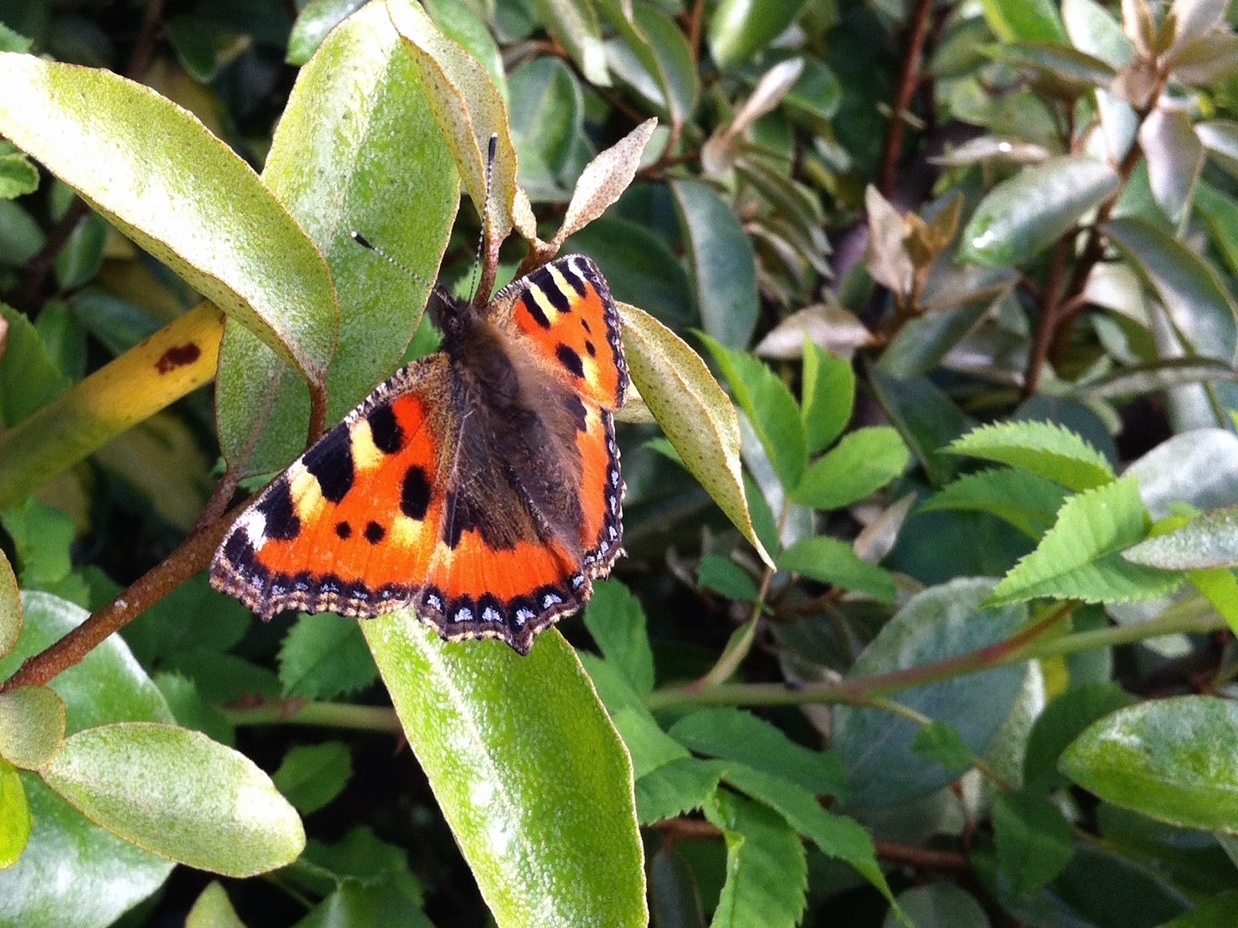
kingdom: Animalia
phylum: Arthropoda
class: Insecta
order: Lepidoptera
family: Nymphalidae
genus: Aglais
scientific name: Aglais urticae
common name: Small tortoiseshell
